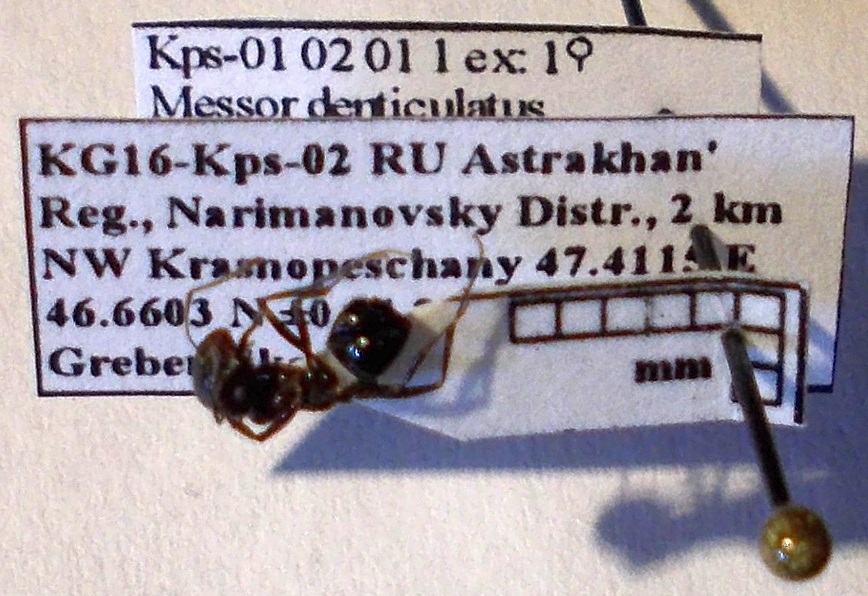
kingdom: Animalia
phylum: Arthropoda
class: Insecta
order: Hymenoptera
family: Formicidae
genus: Messor
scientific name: Messor denticulatus
